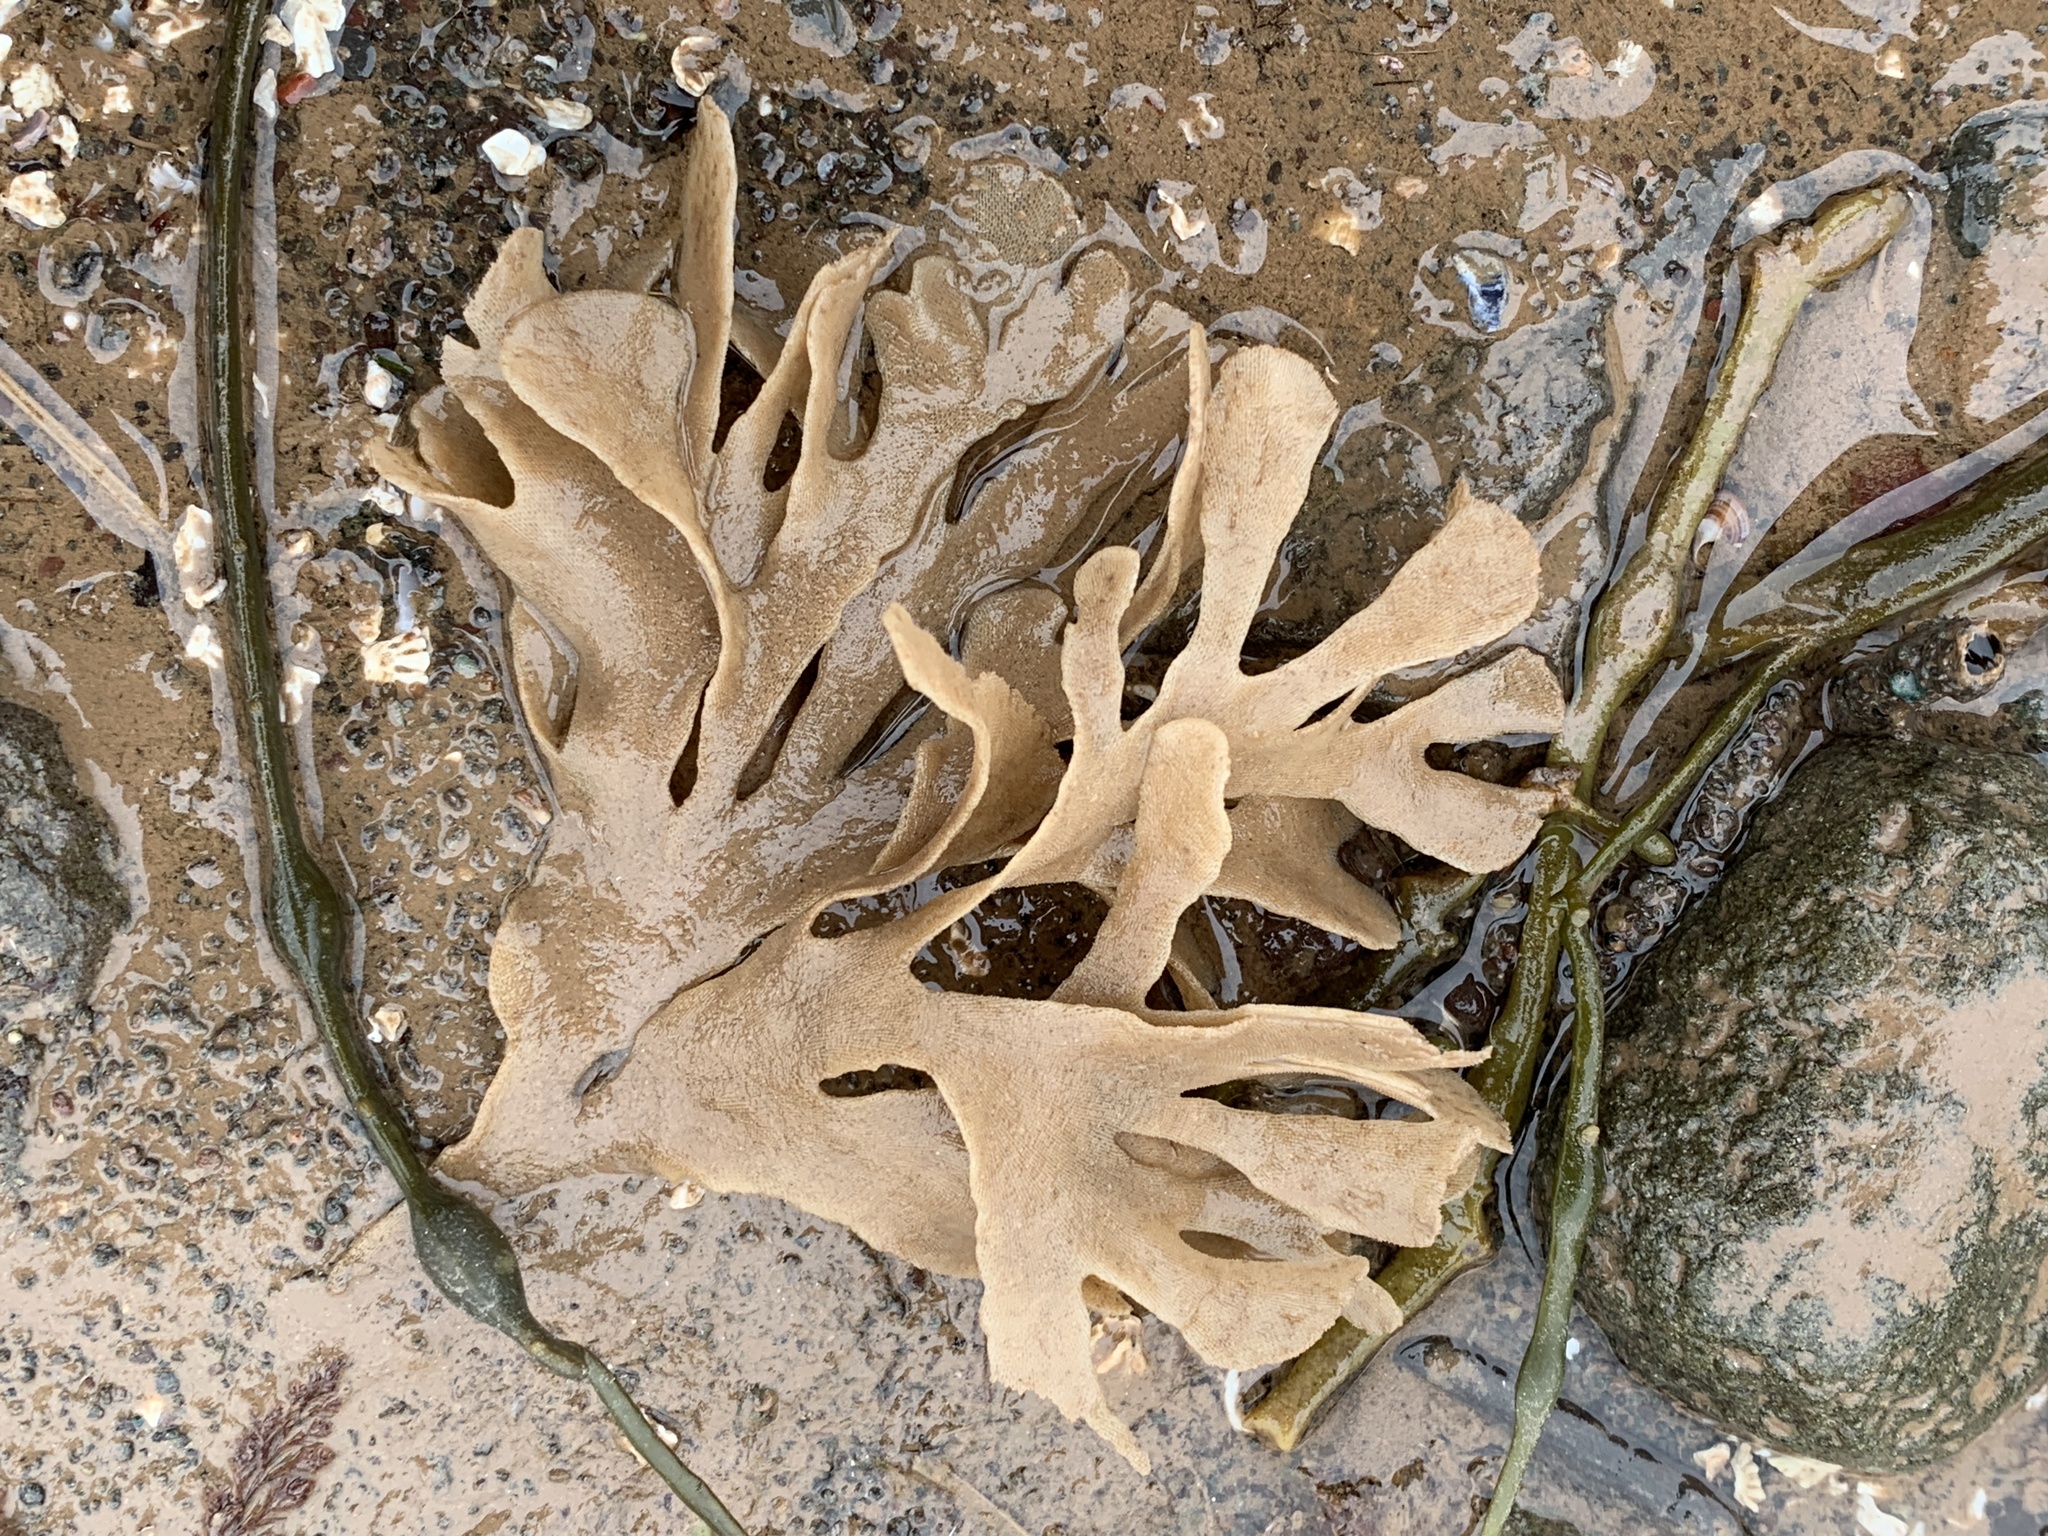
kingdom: Animalia
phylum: Bryozoa
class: Gymnolaemata
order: Cheilostomatida
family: Flustridae
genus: Flustra
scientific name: Flustra foliacea
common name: Hornwrack
